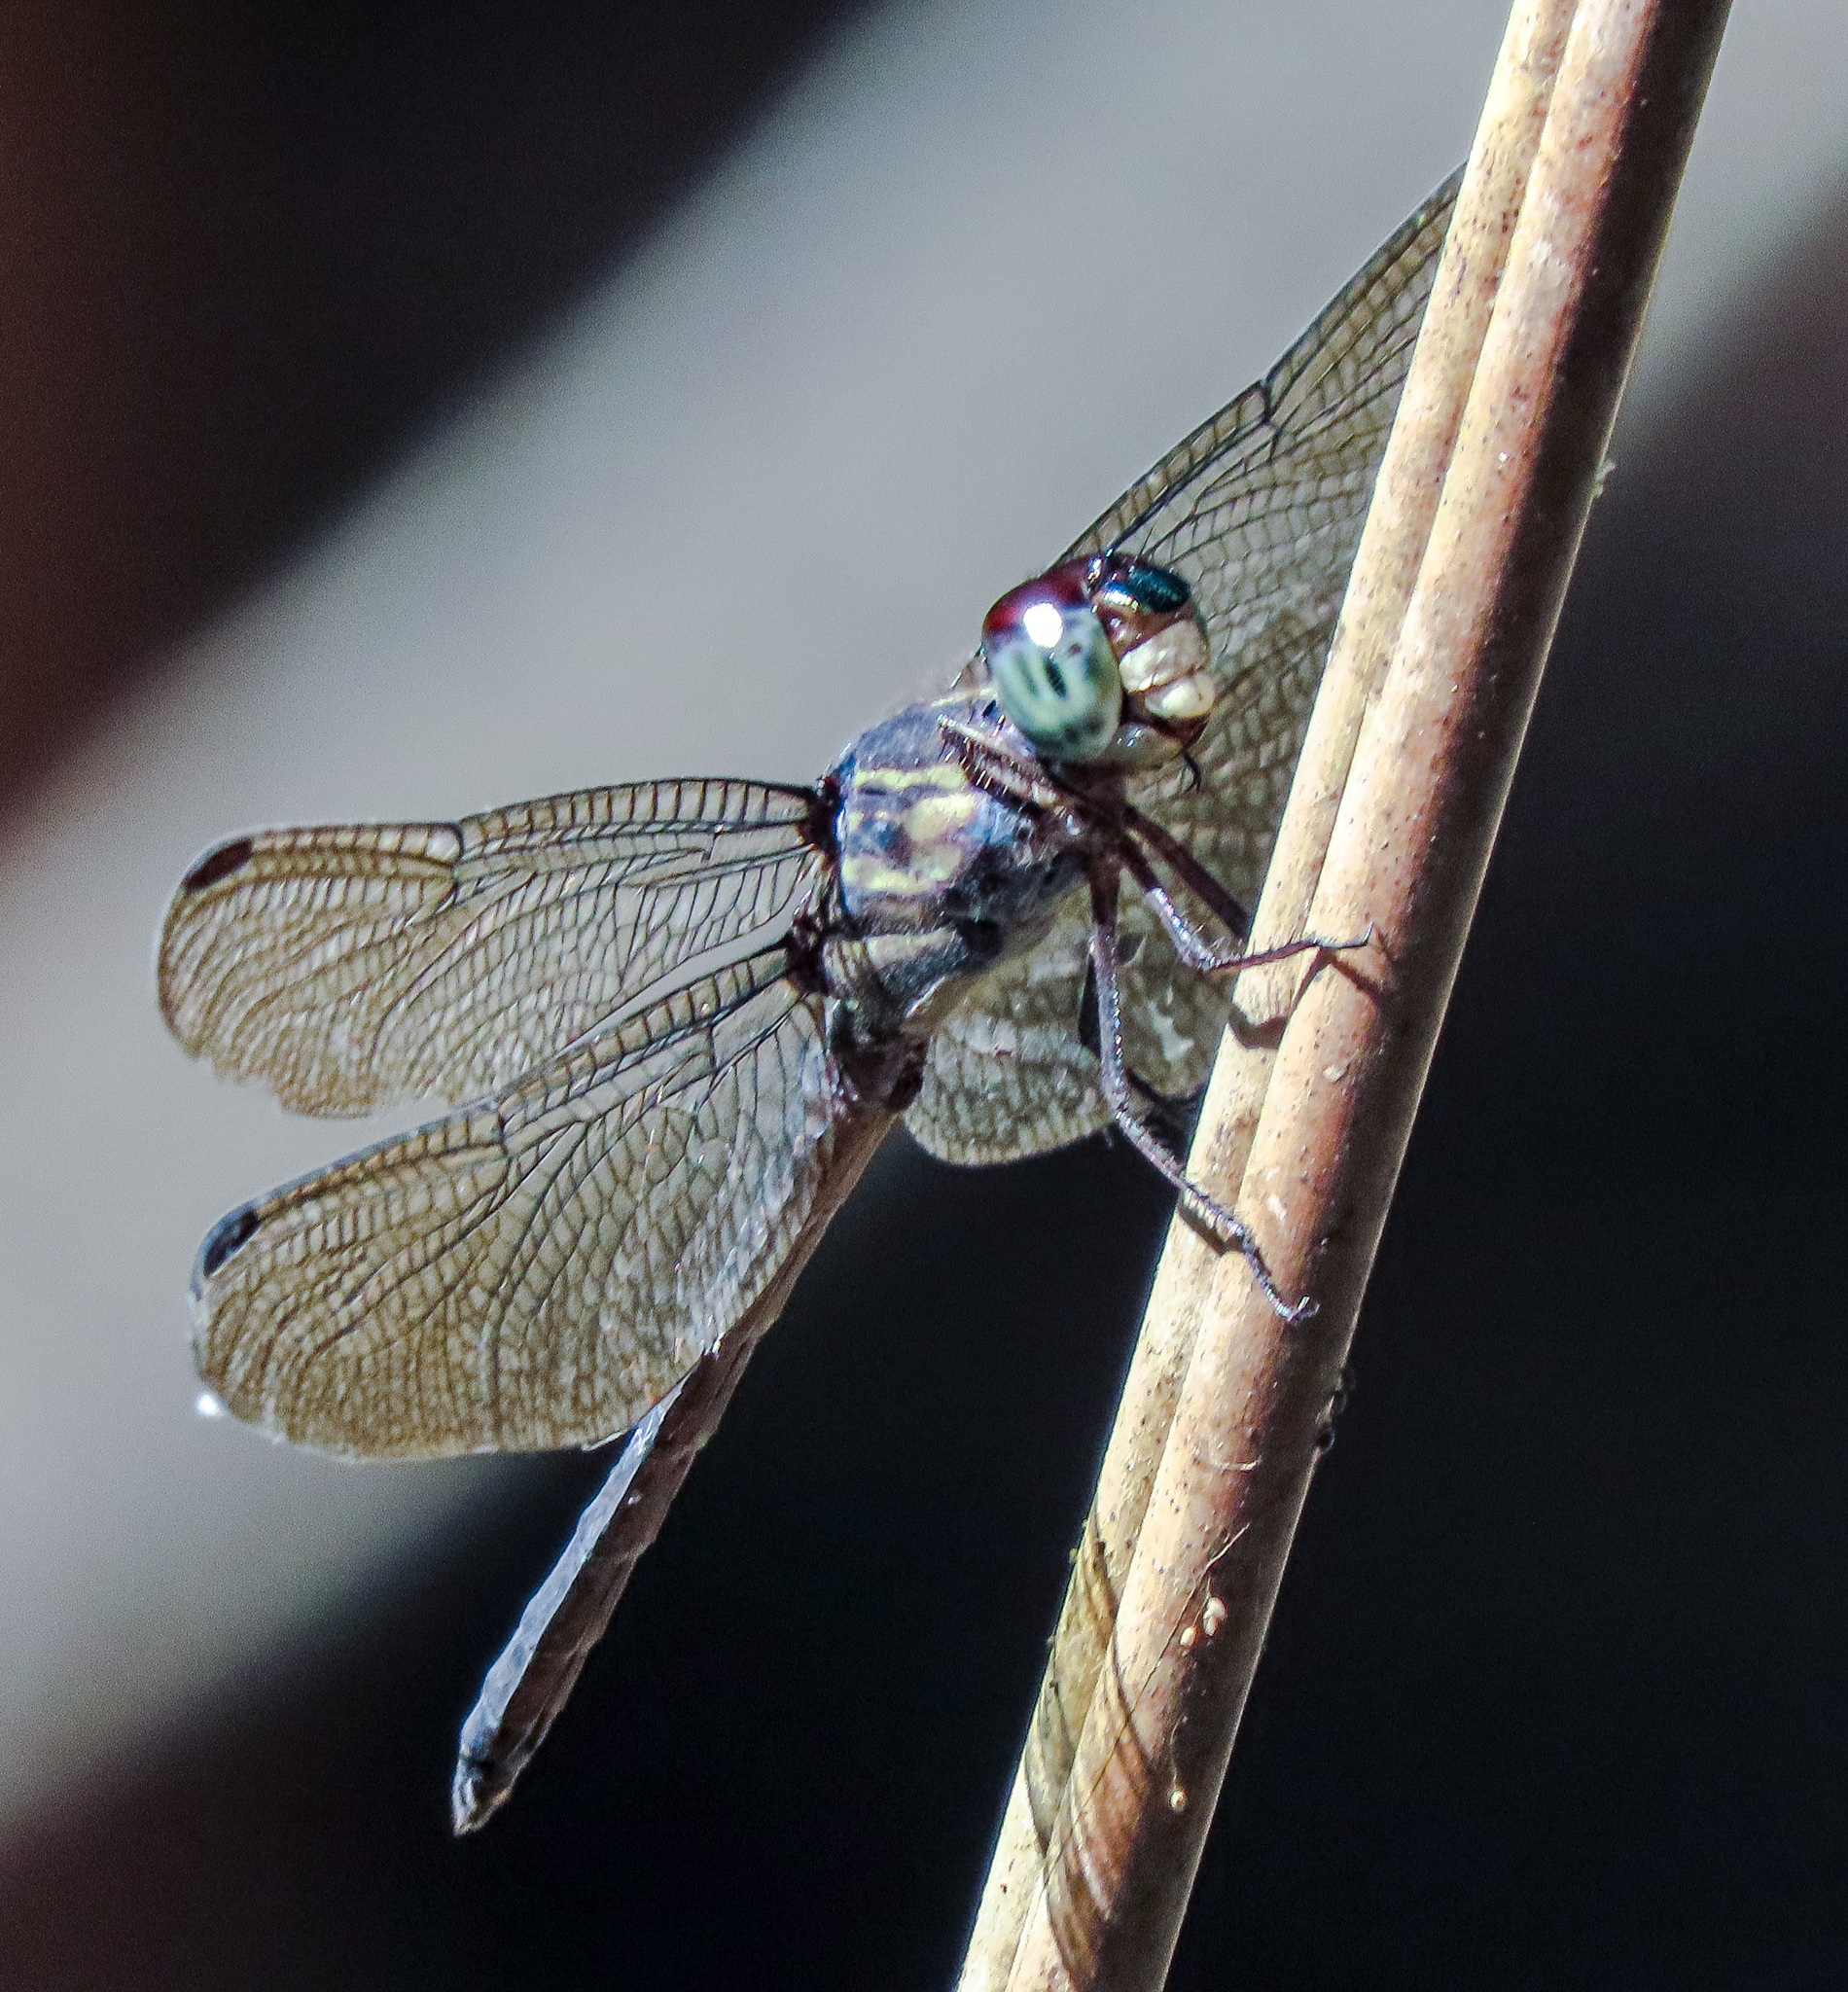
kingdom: Animalia
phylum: Arthropoda
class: Insecta
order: Odonata
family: Libellulidae
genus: Cratilla
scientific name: Cratilla lineata
